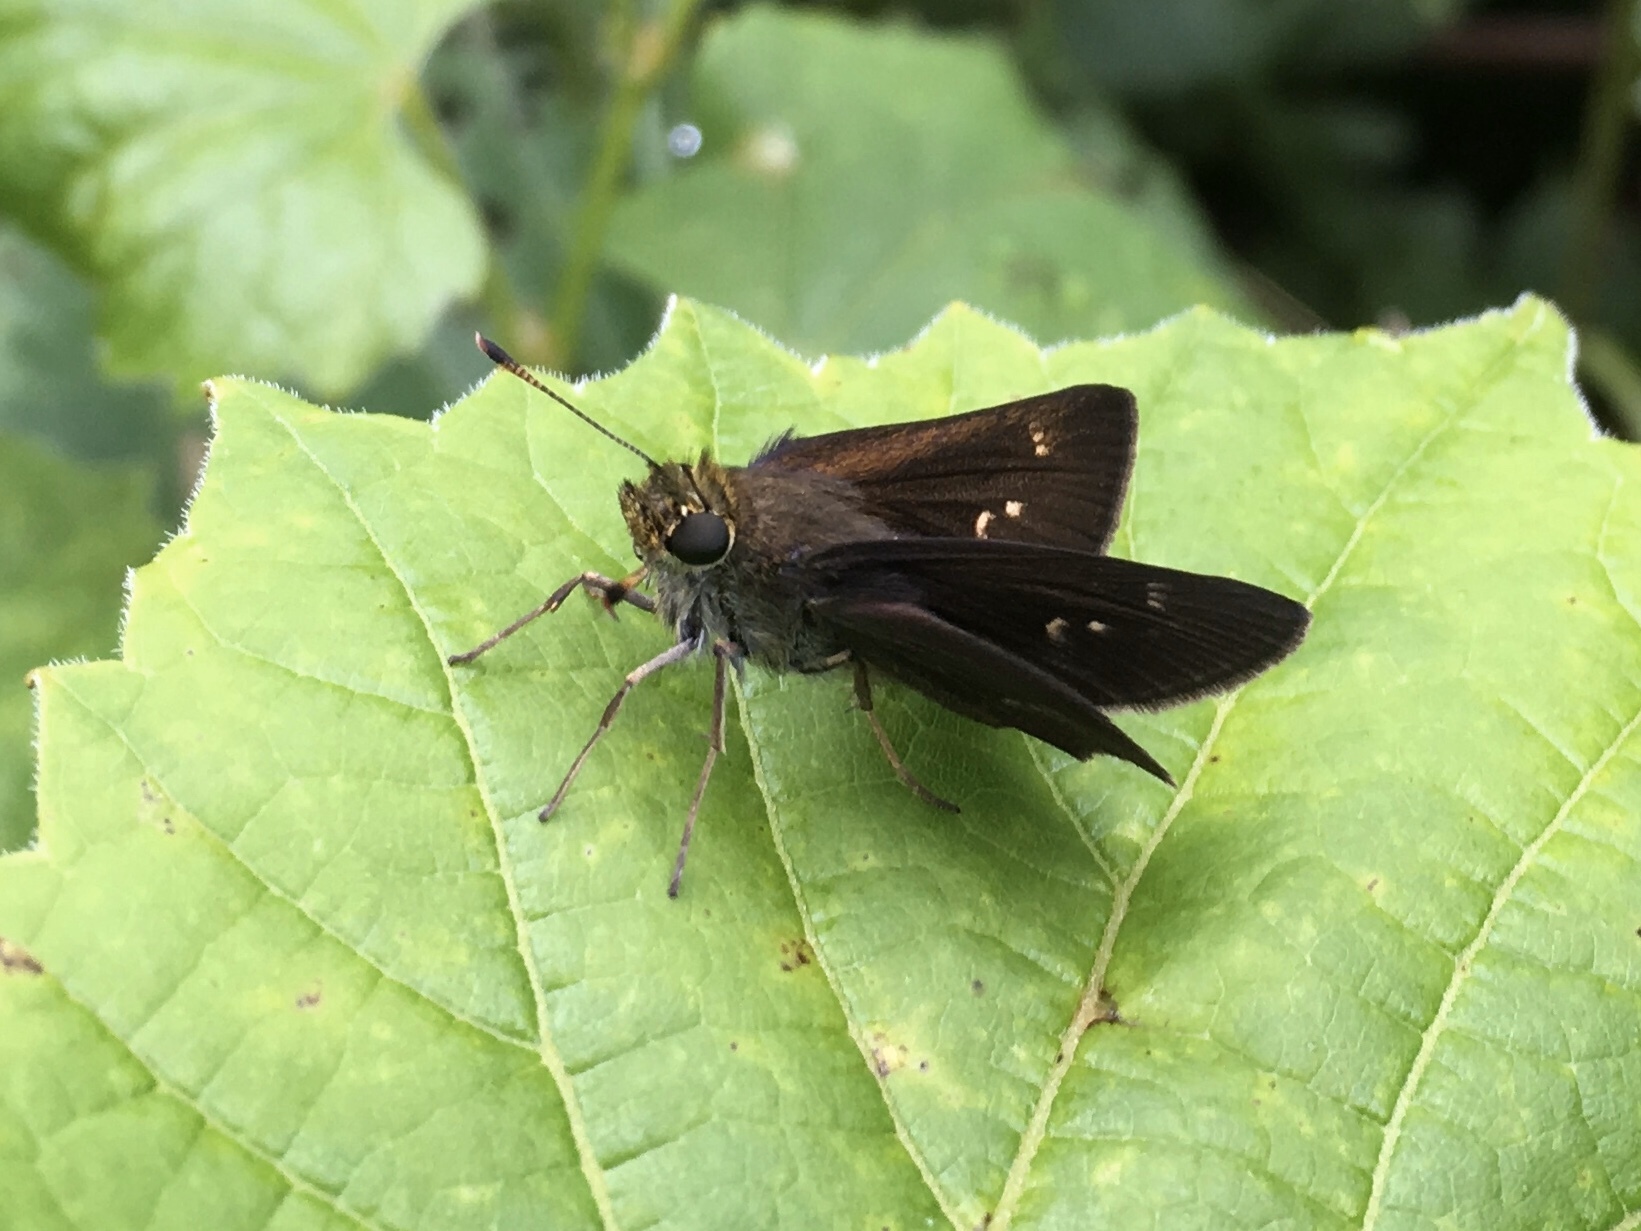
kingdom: Animalia
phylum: Arthropoda
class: Insecta
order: Lepidoptera
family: Hesperiidae
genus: Euphyes
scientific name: Euphyes vestris
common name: Dun skipper
